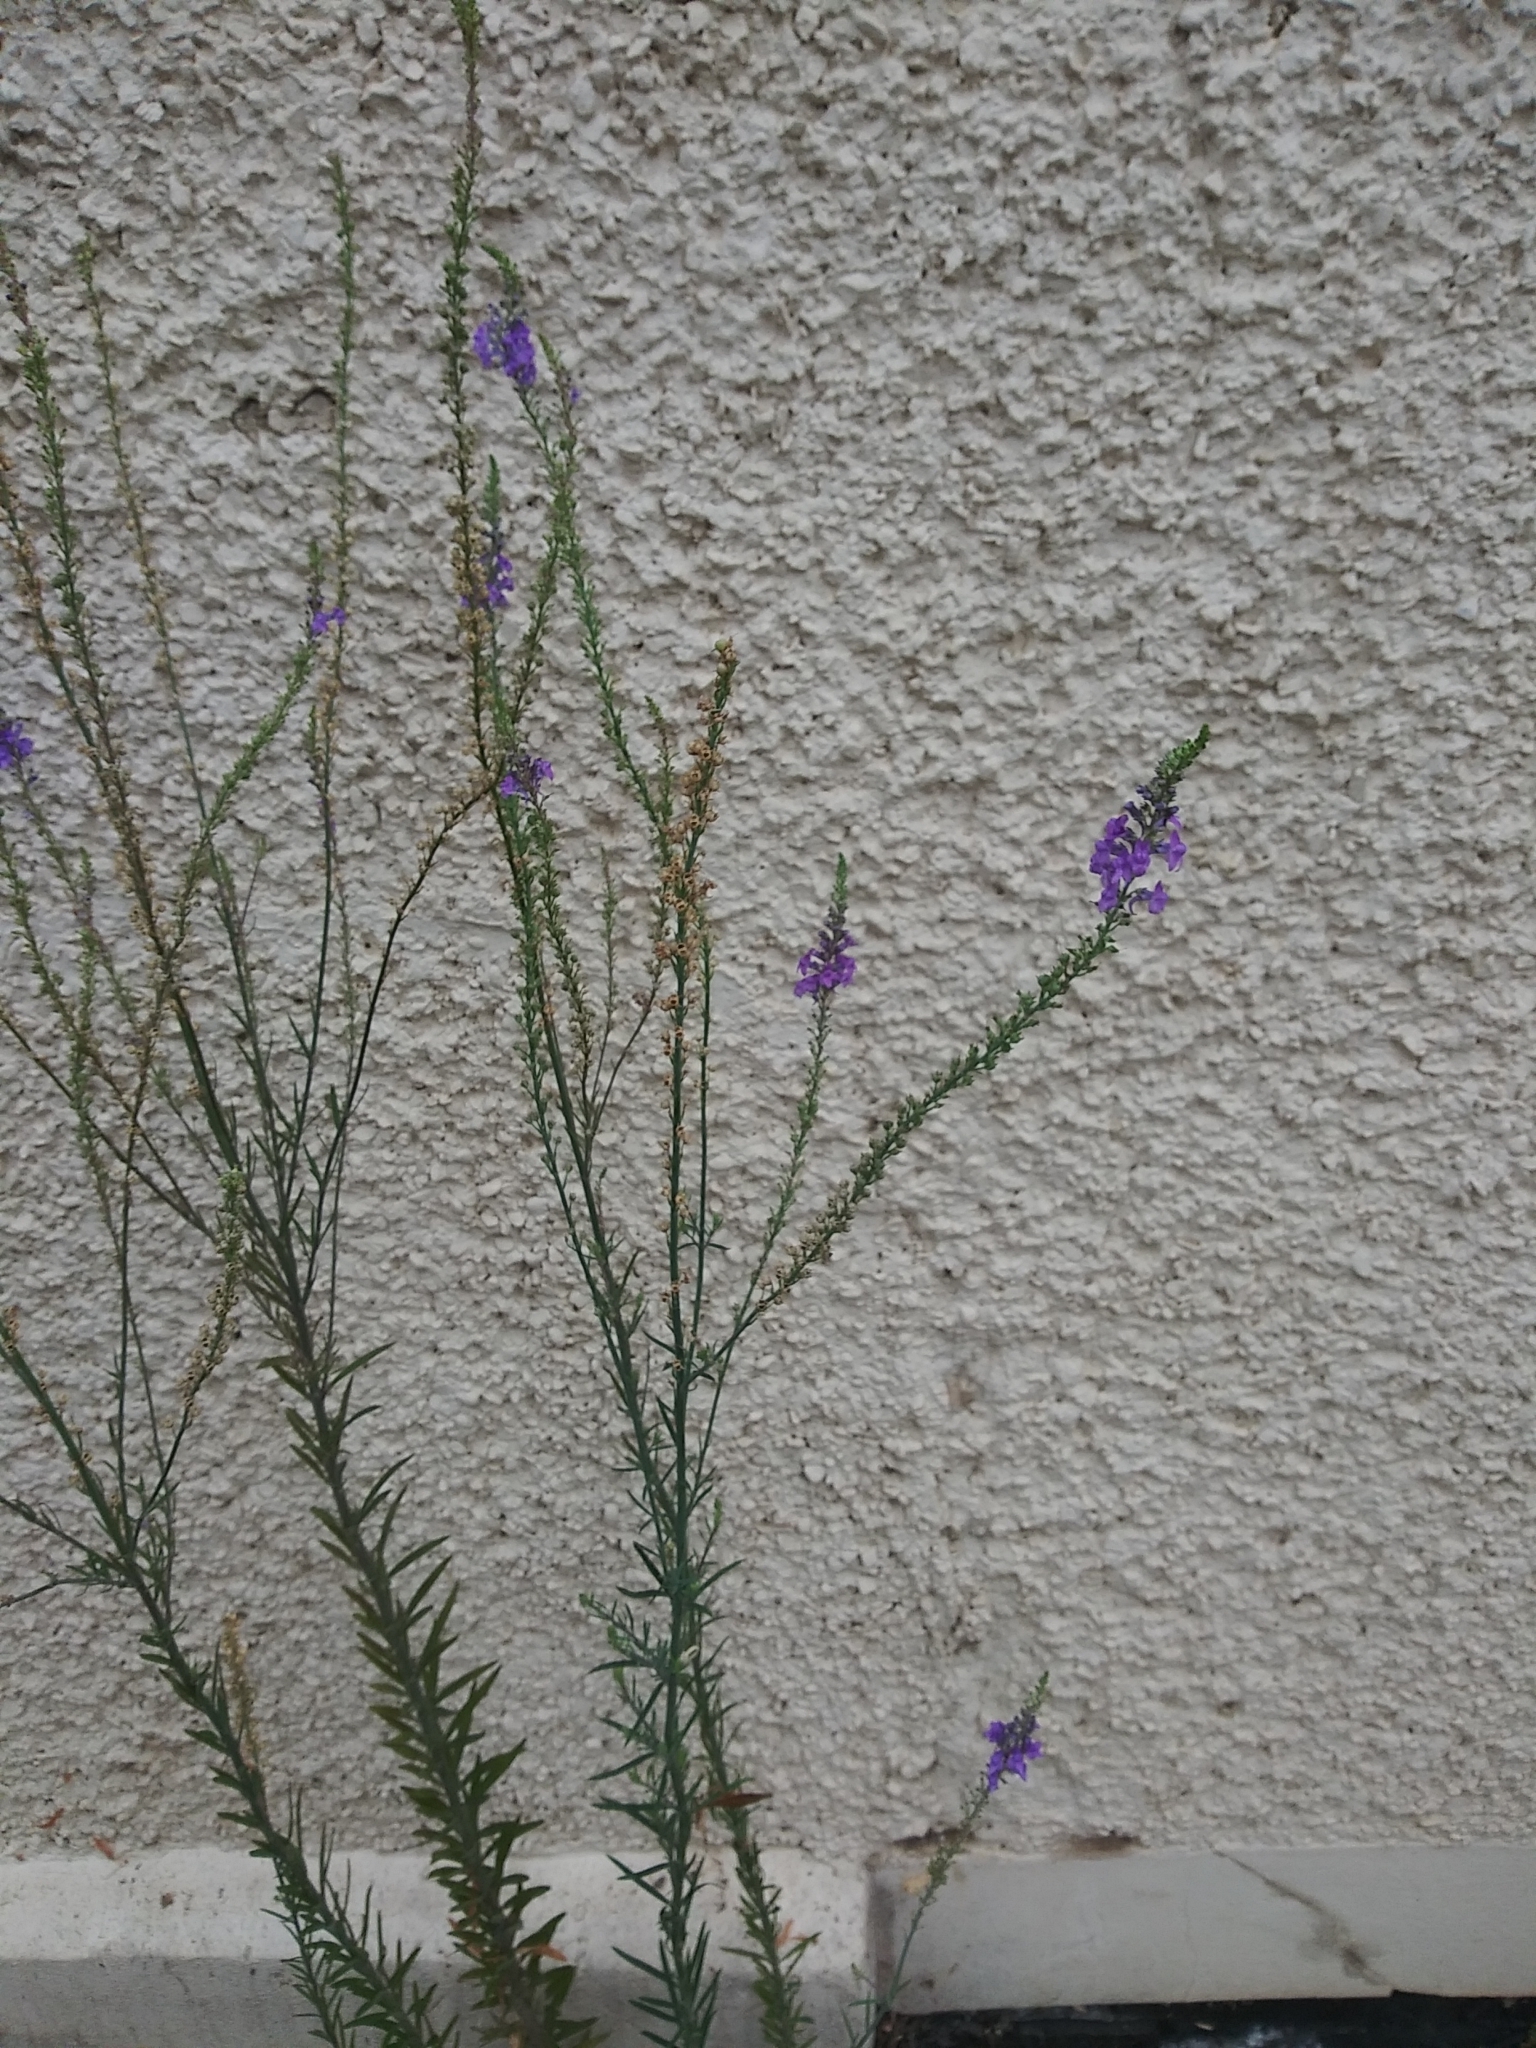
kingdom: Plantae
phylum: Tracheophyta
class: Magnoliopsida
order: Lamiales
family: Plantaginaceae
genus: Linaria
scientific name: Linaria purpurea
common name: Purple toadflax
